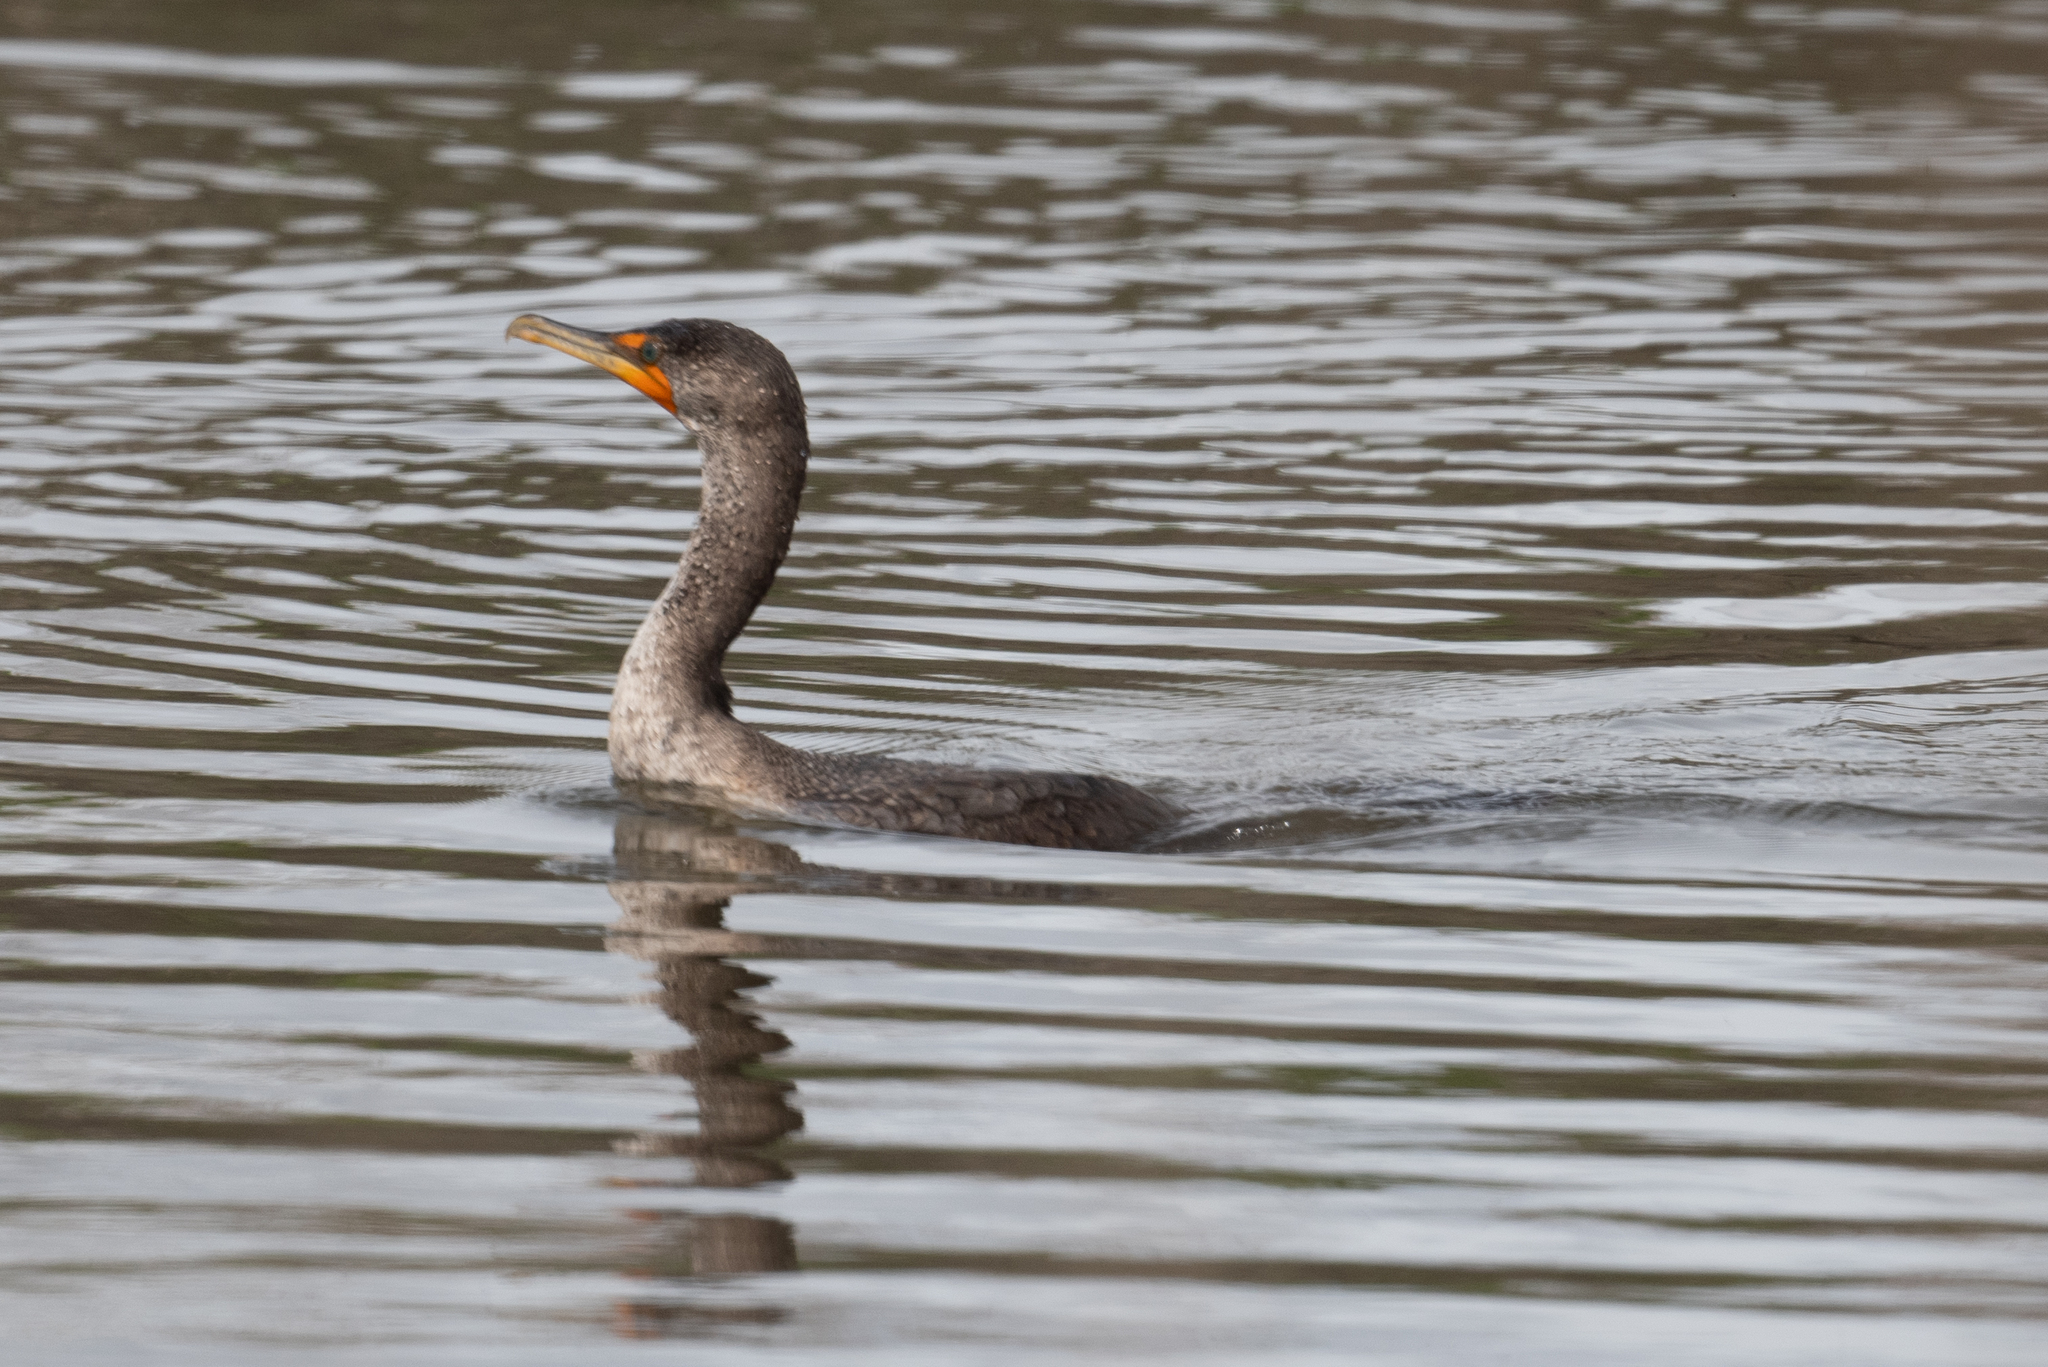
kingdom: Animalia
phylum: Chordata
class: Aves
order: Suliformes
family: Phalacrocoracidae
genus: Phalacrocorax
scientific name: Phalacrocorax auritus
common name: Double-crested cormorant
